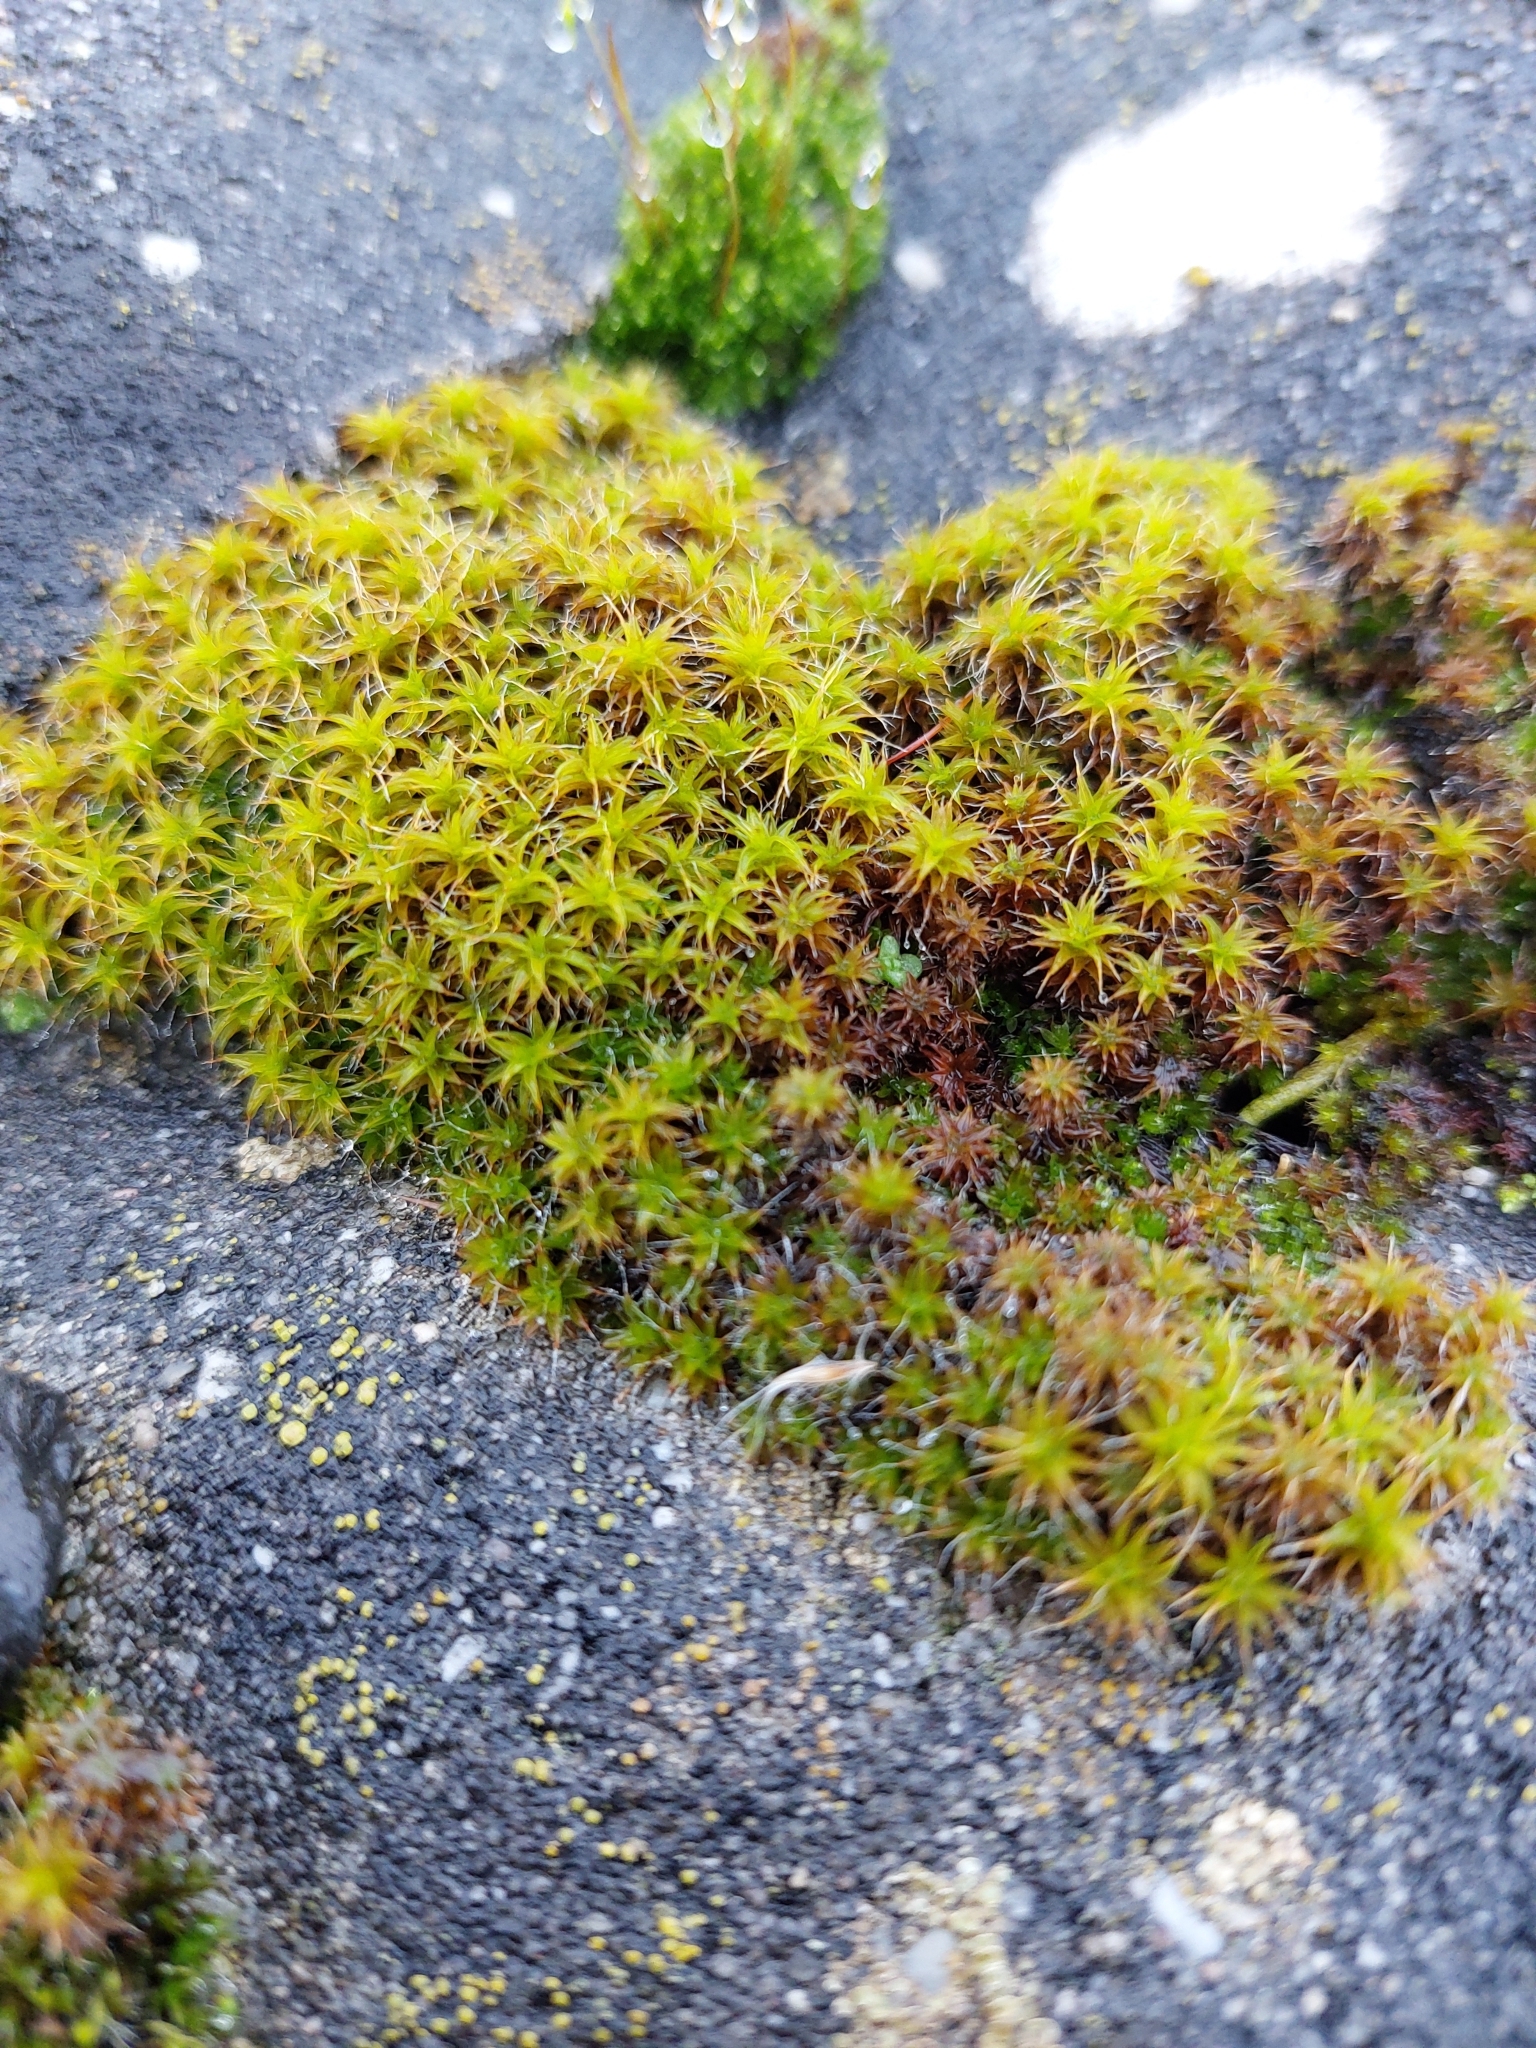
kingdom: Plantae
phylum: Bryophyta
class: Bryopsida
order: Pottiales
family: Pottiaceae
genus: Syntrichia
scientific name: Syntrichia ruralis
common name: Sidewalk screw moss
